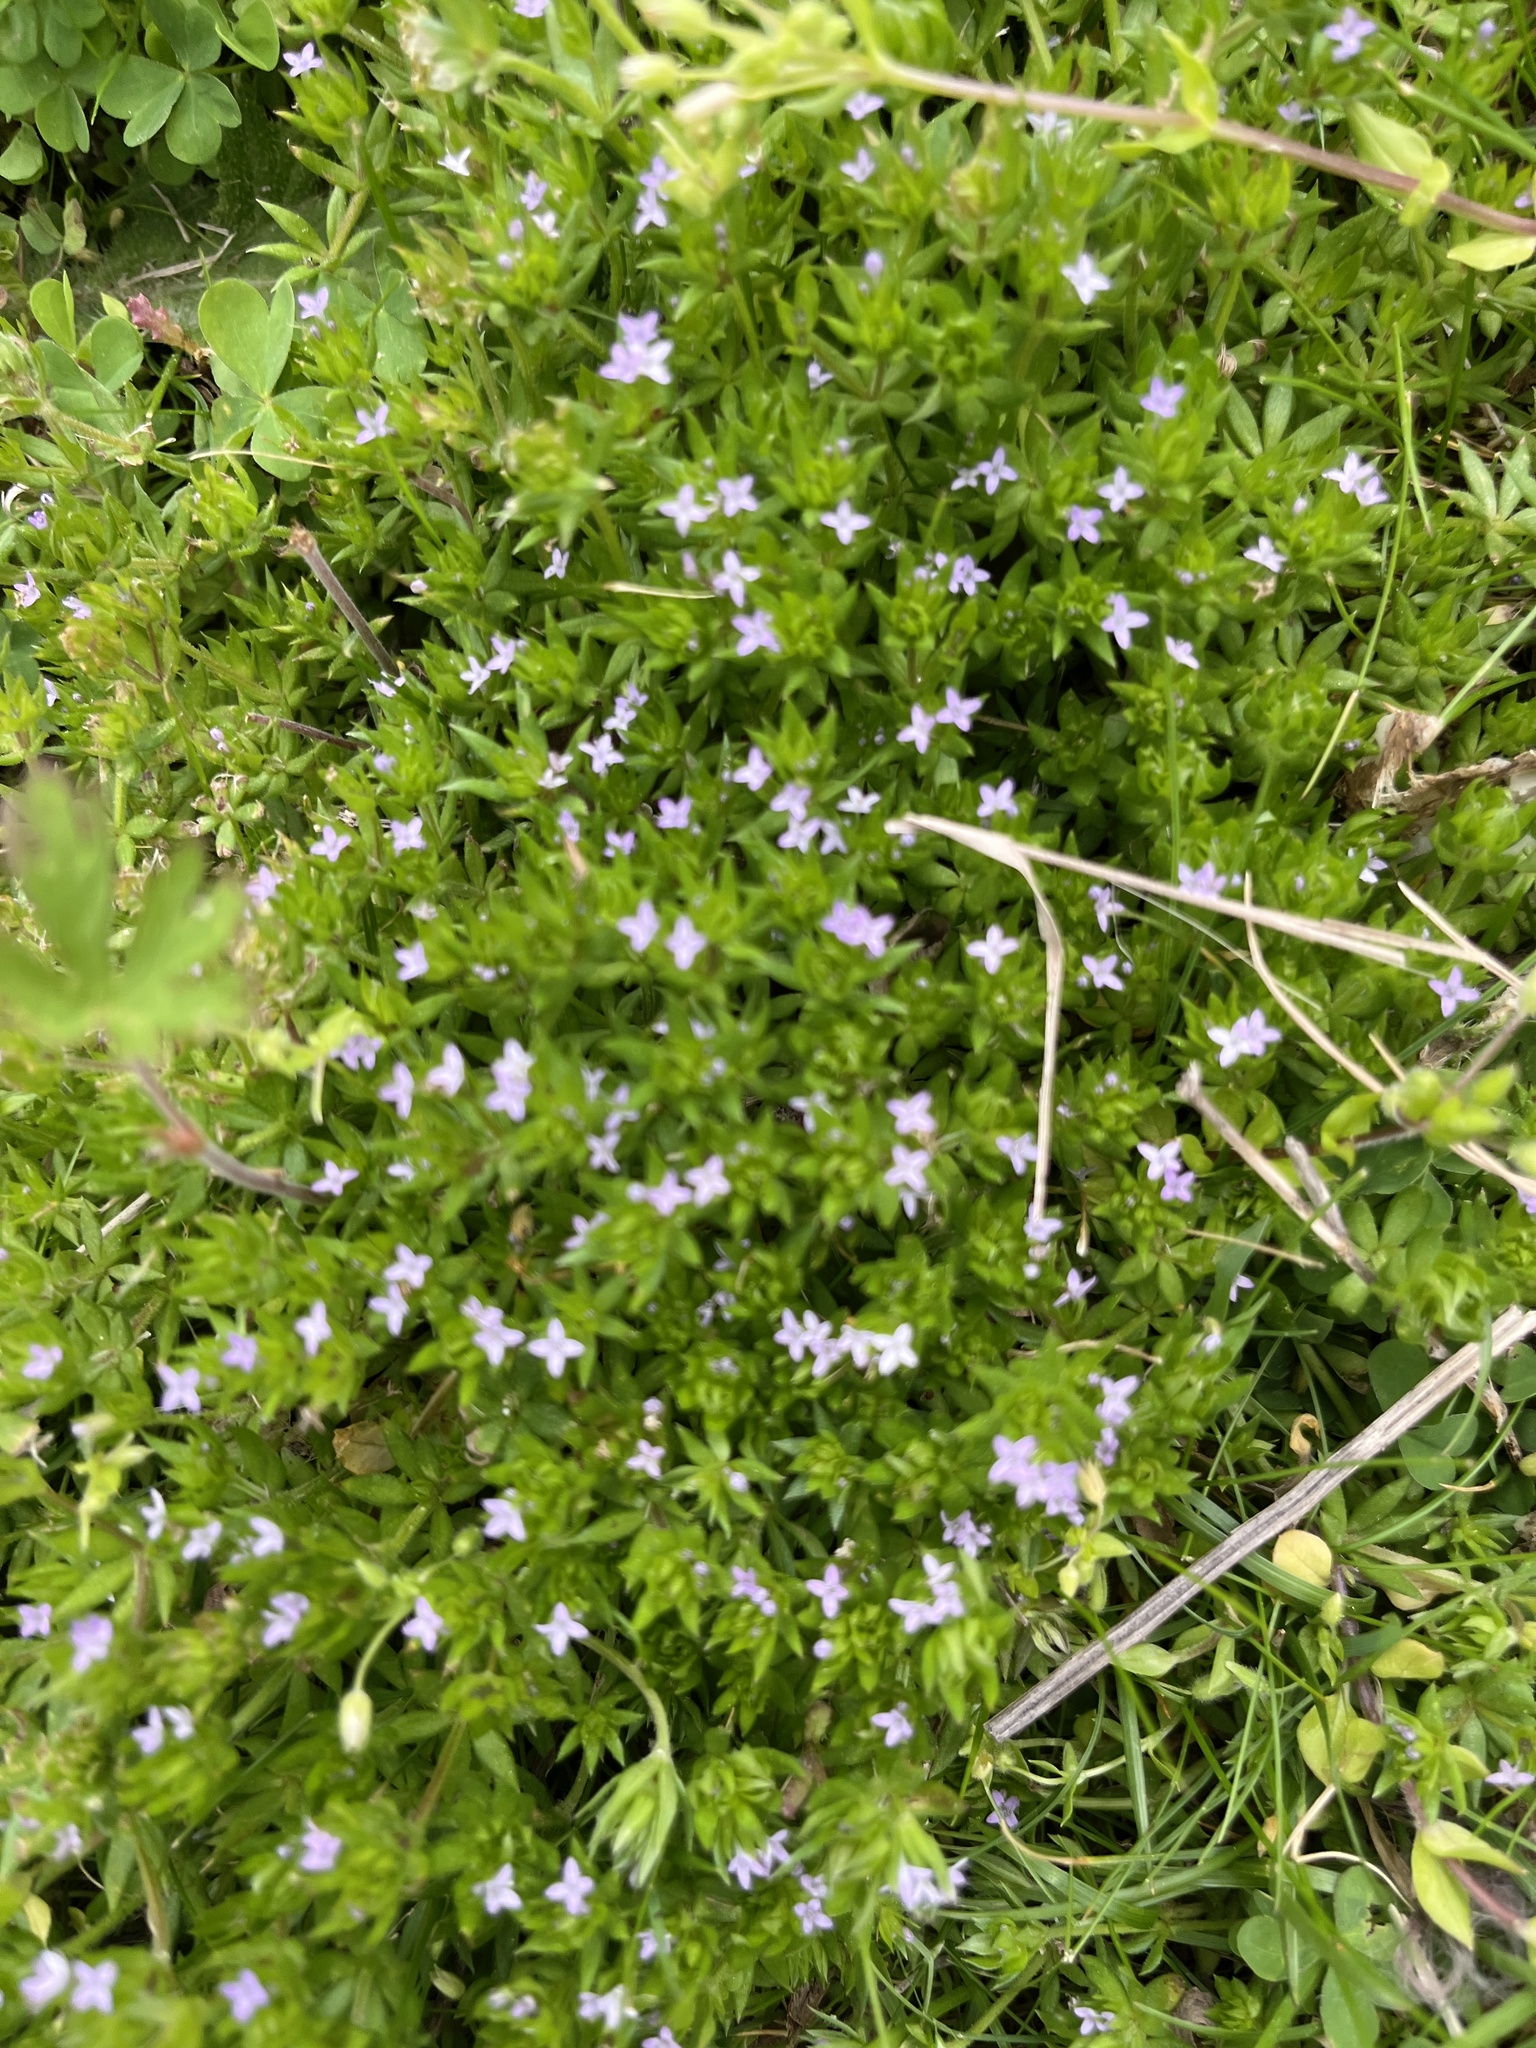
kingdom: Plantae
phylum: Tracheophyta
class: Magnoliopsida
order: Gentianales
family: Rubiaceae
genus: Sherardia
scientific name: Sherardia arvensis
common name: Field madder
